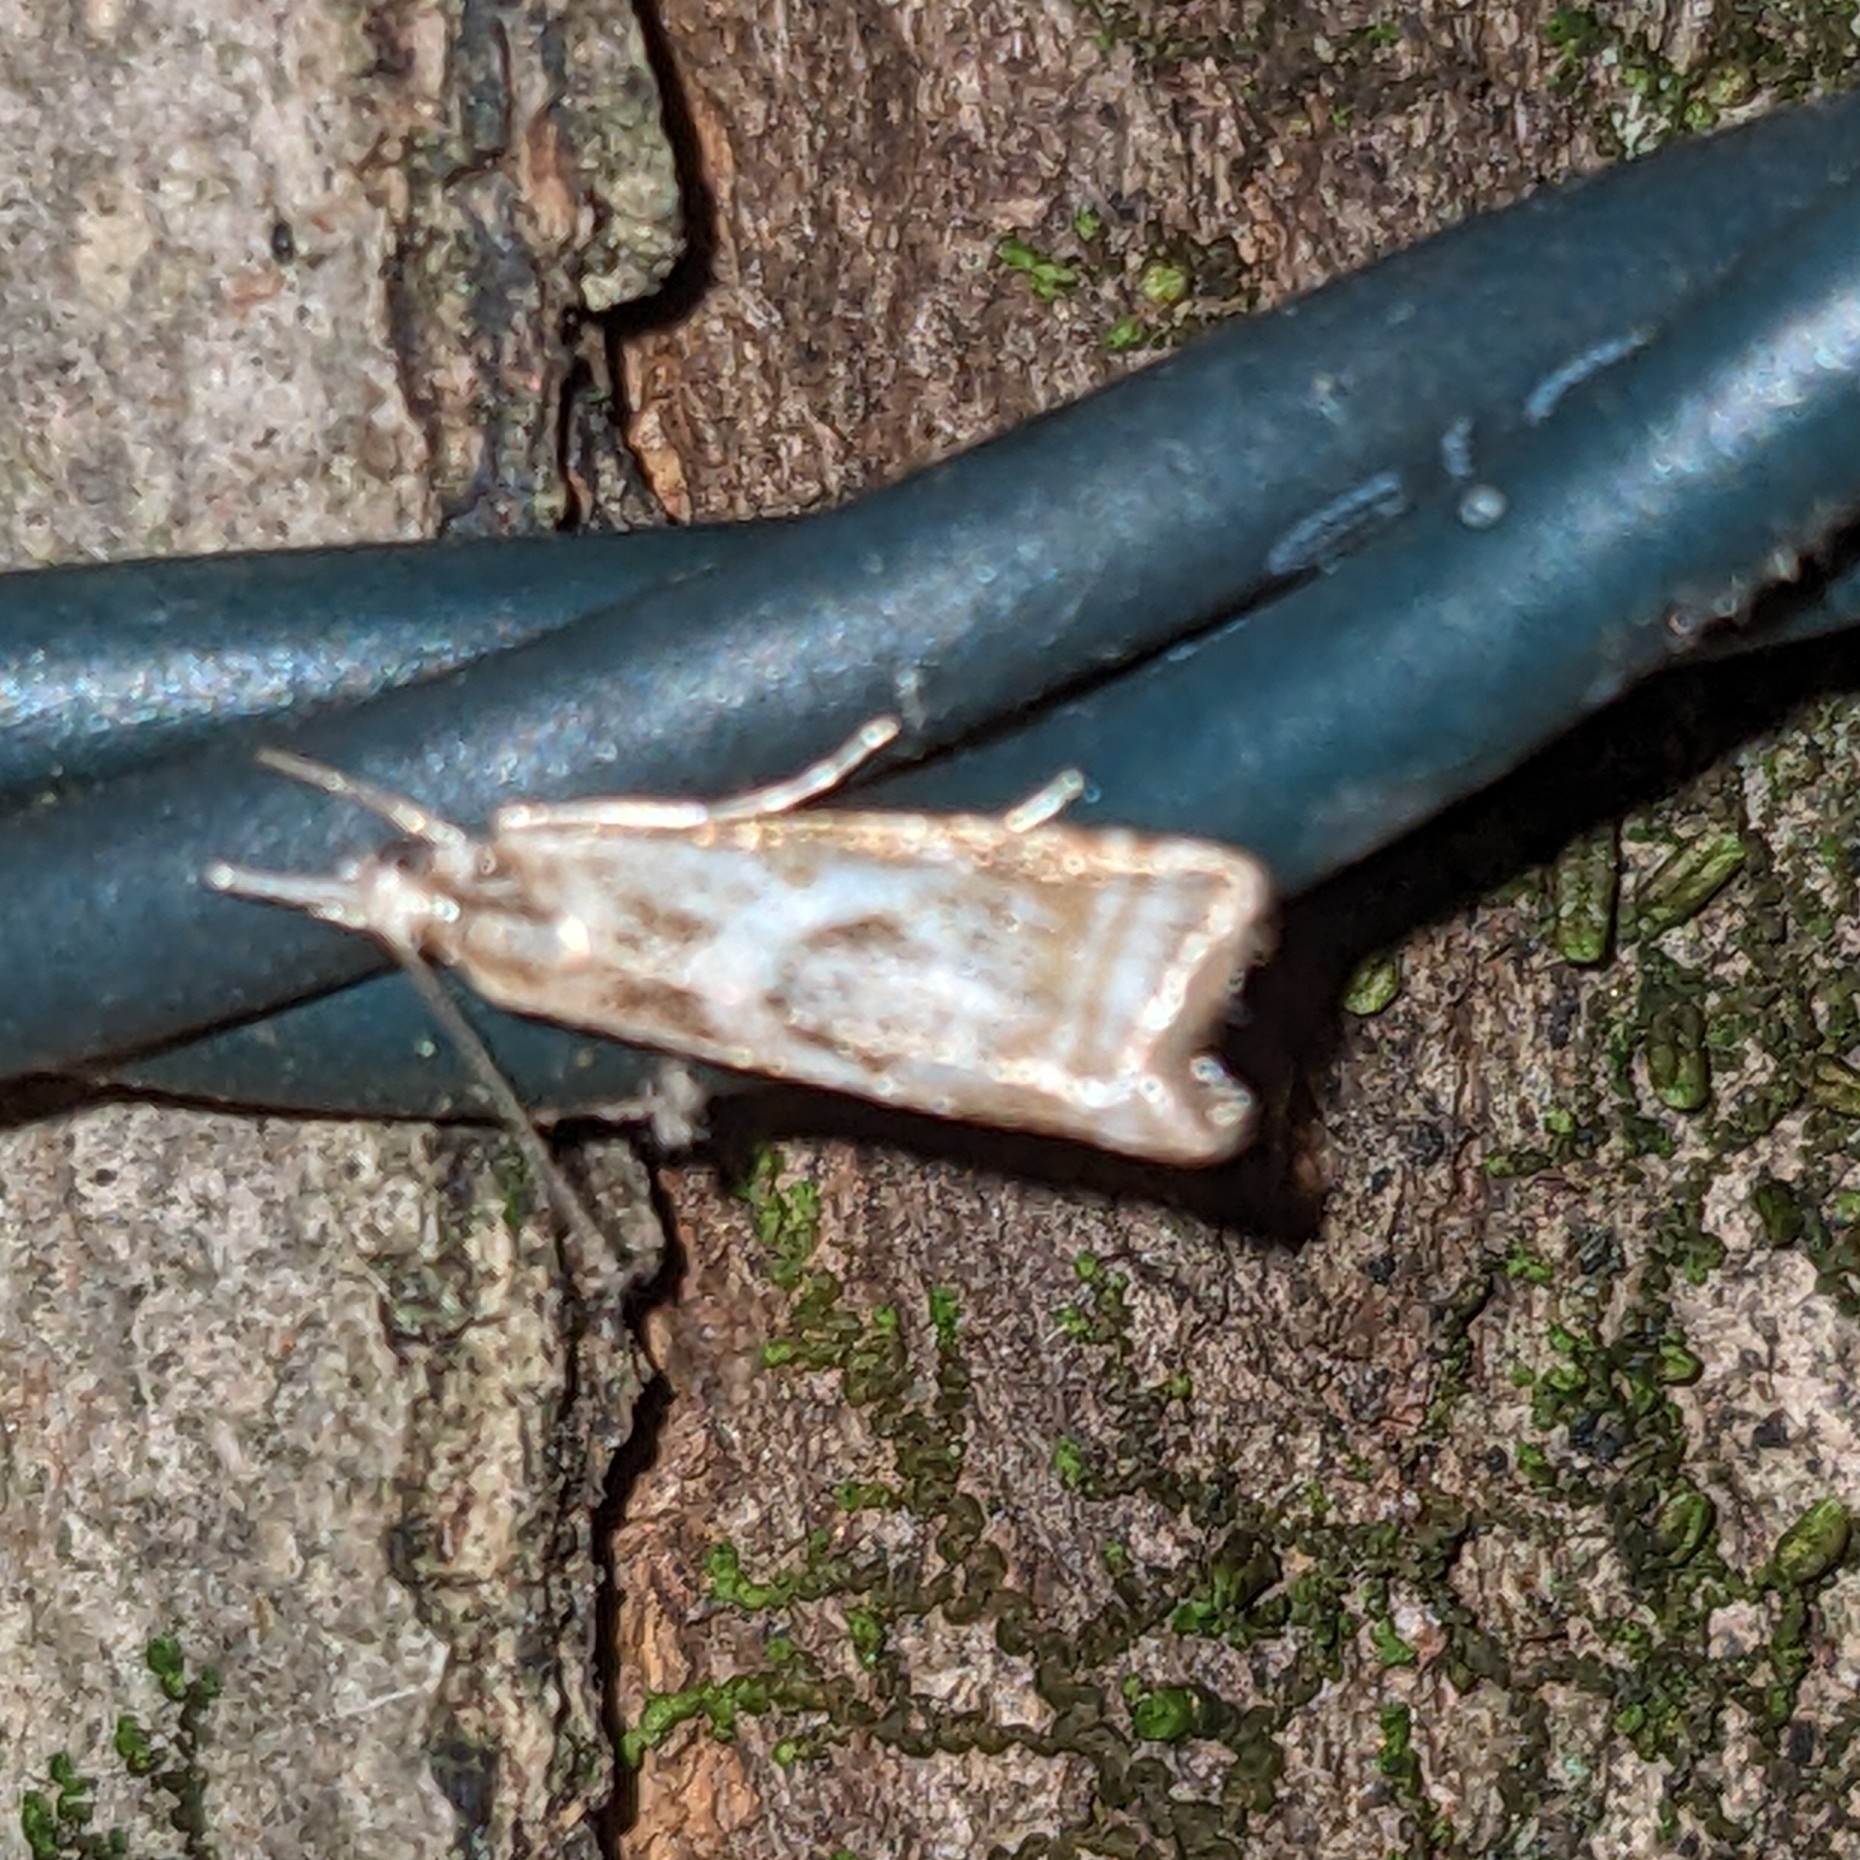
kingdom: Animalia
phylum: Arthropoda
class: Insecta
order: Lepidoptera
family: Crambidae
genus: Microcrambus
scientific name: Microcrambus elegans
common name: Elegant grass-veneer
